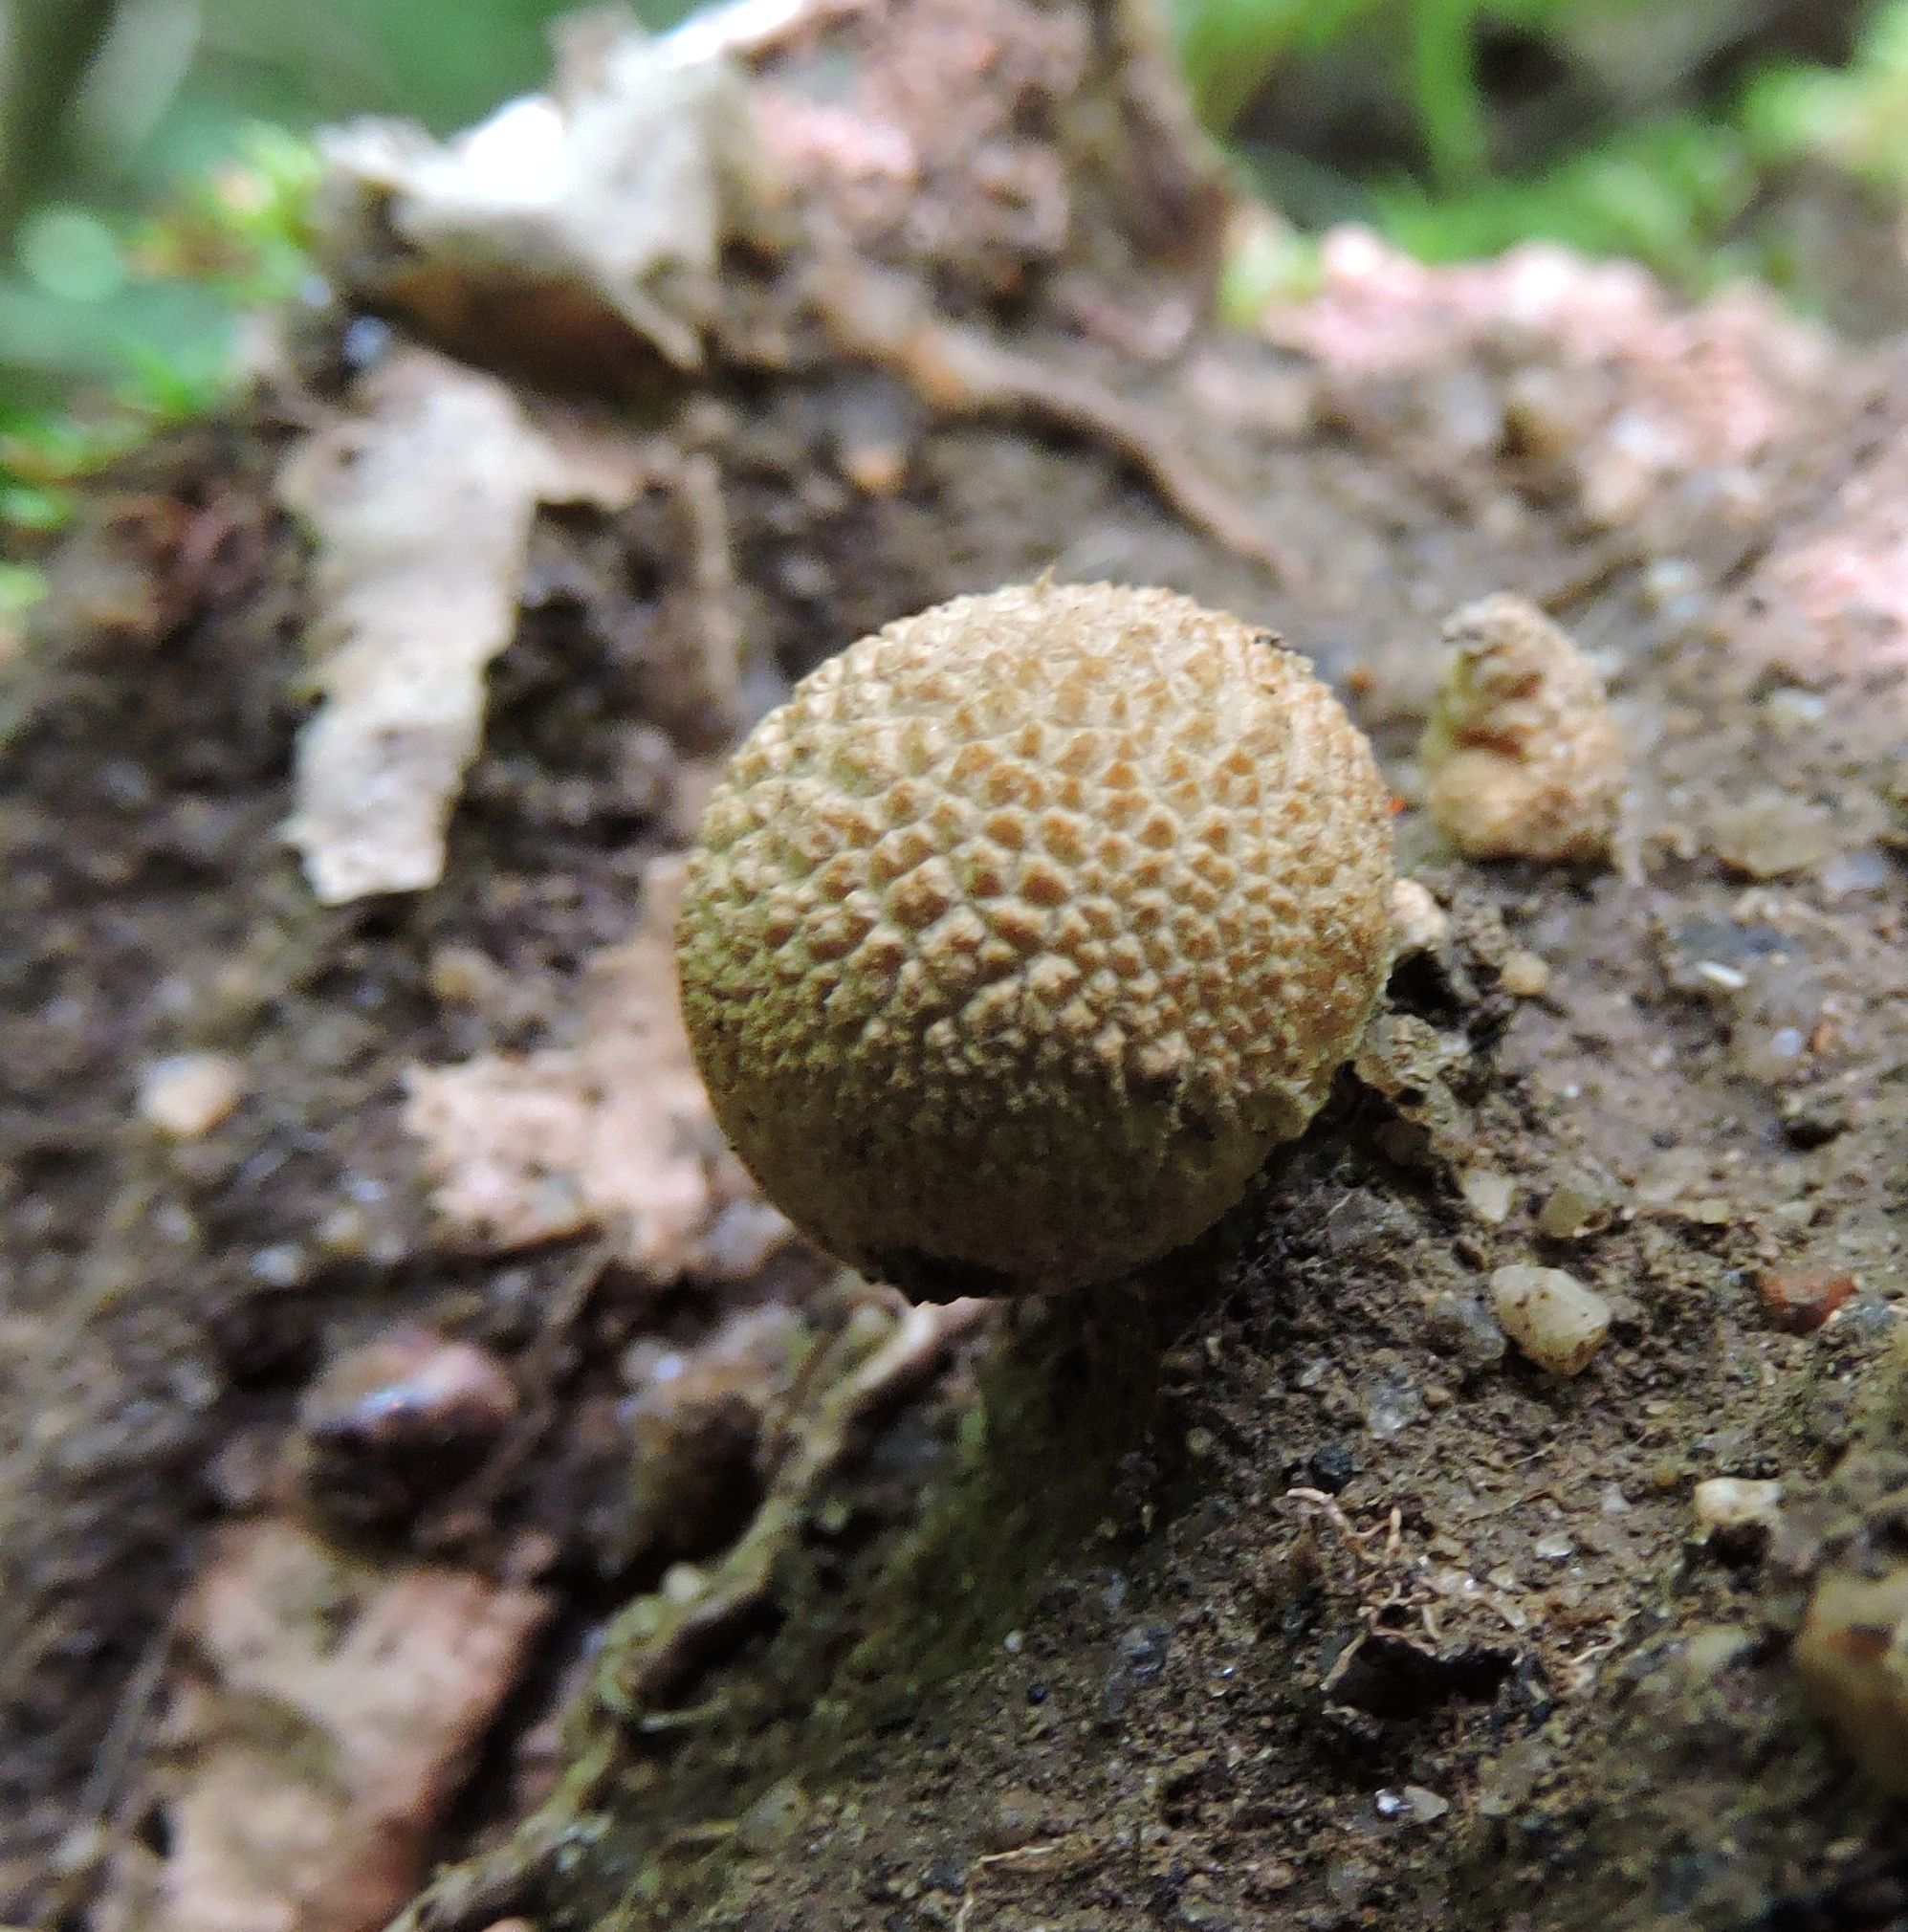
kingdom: Fungi
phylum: Basidiomycota
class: Agaricomycetes
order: Boletales
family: Sclerodermataceae
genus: Scleroderma
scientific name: Scleroderma citrinum
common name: Common earthball
